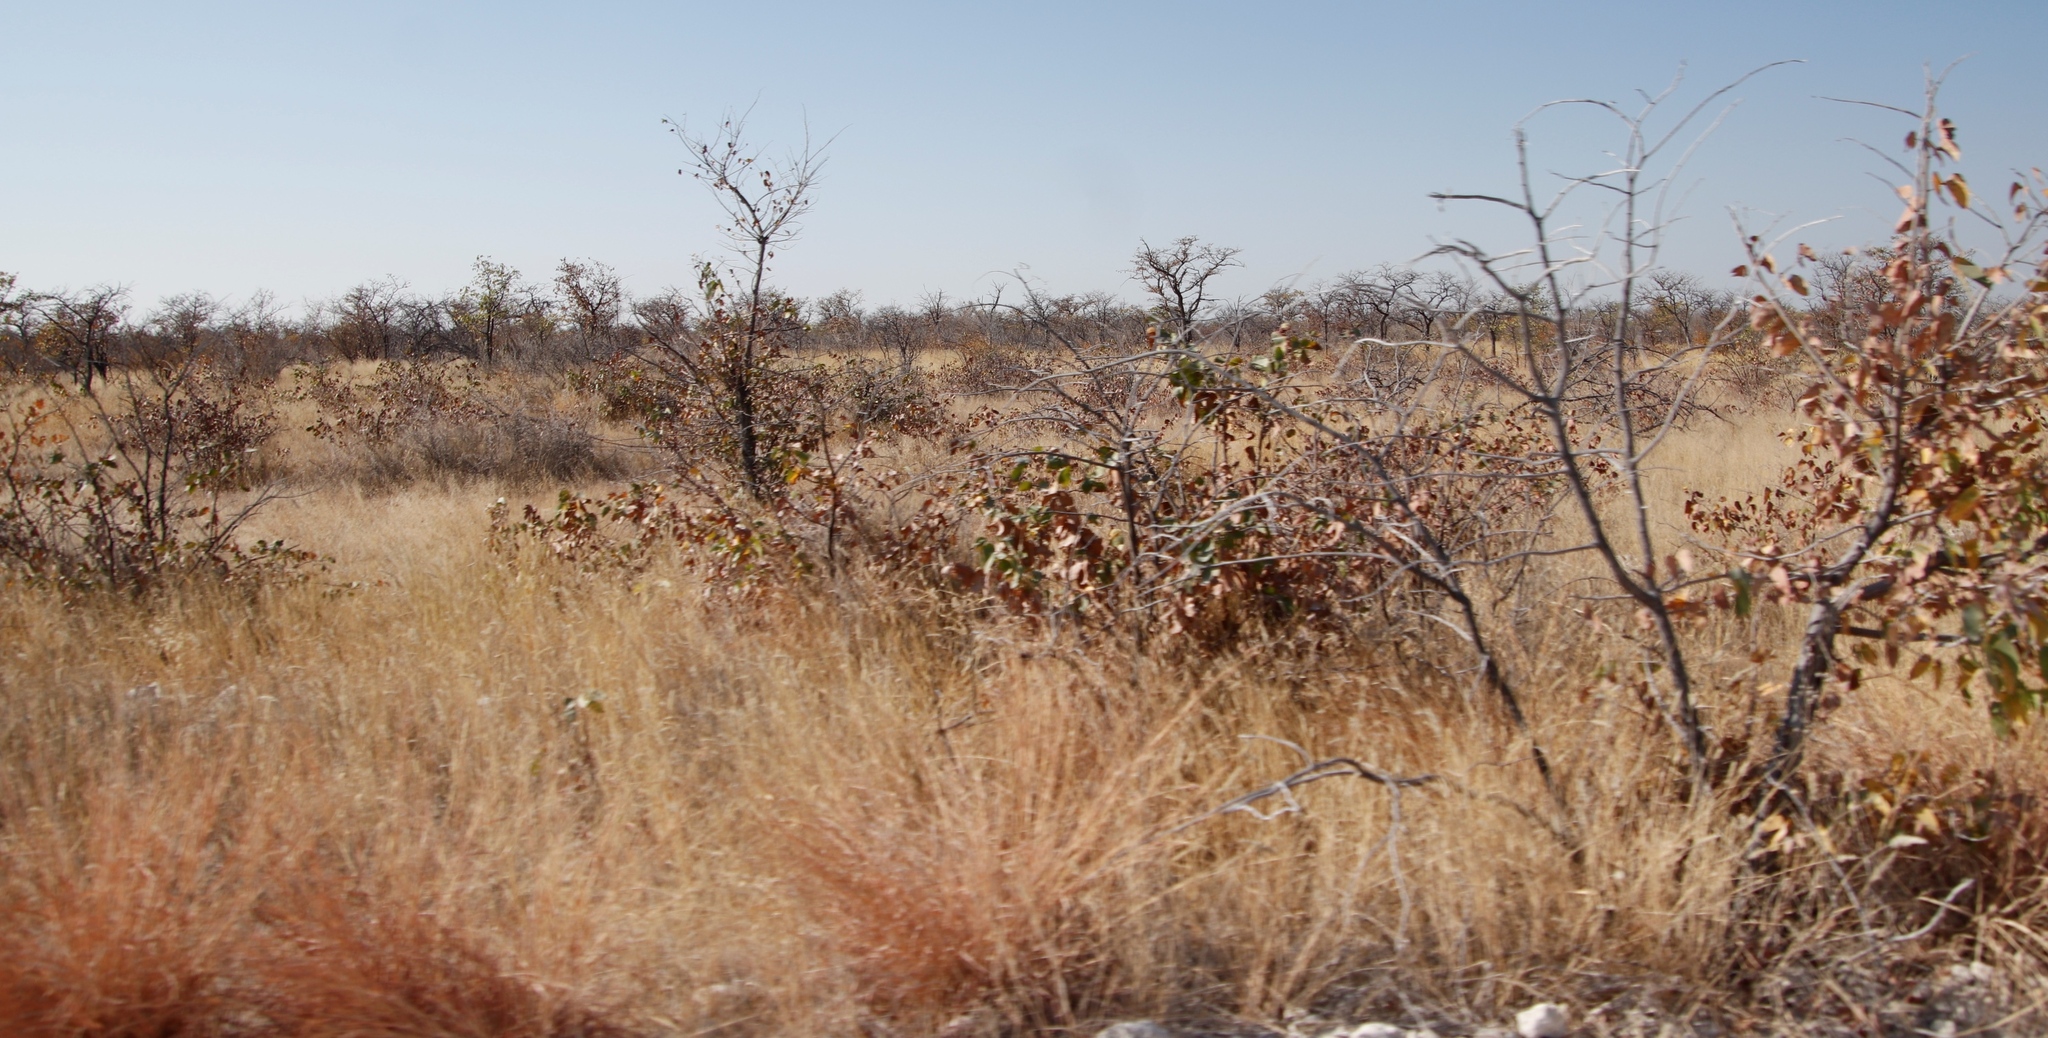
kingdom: Plantae
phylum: Tracheophyta
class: Magnoliopsida
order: Fabales
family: Fabaceae
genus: Colophospermum
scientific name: Colophospermum mopane
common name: Mopane
